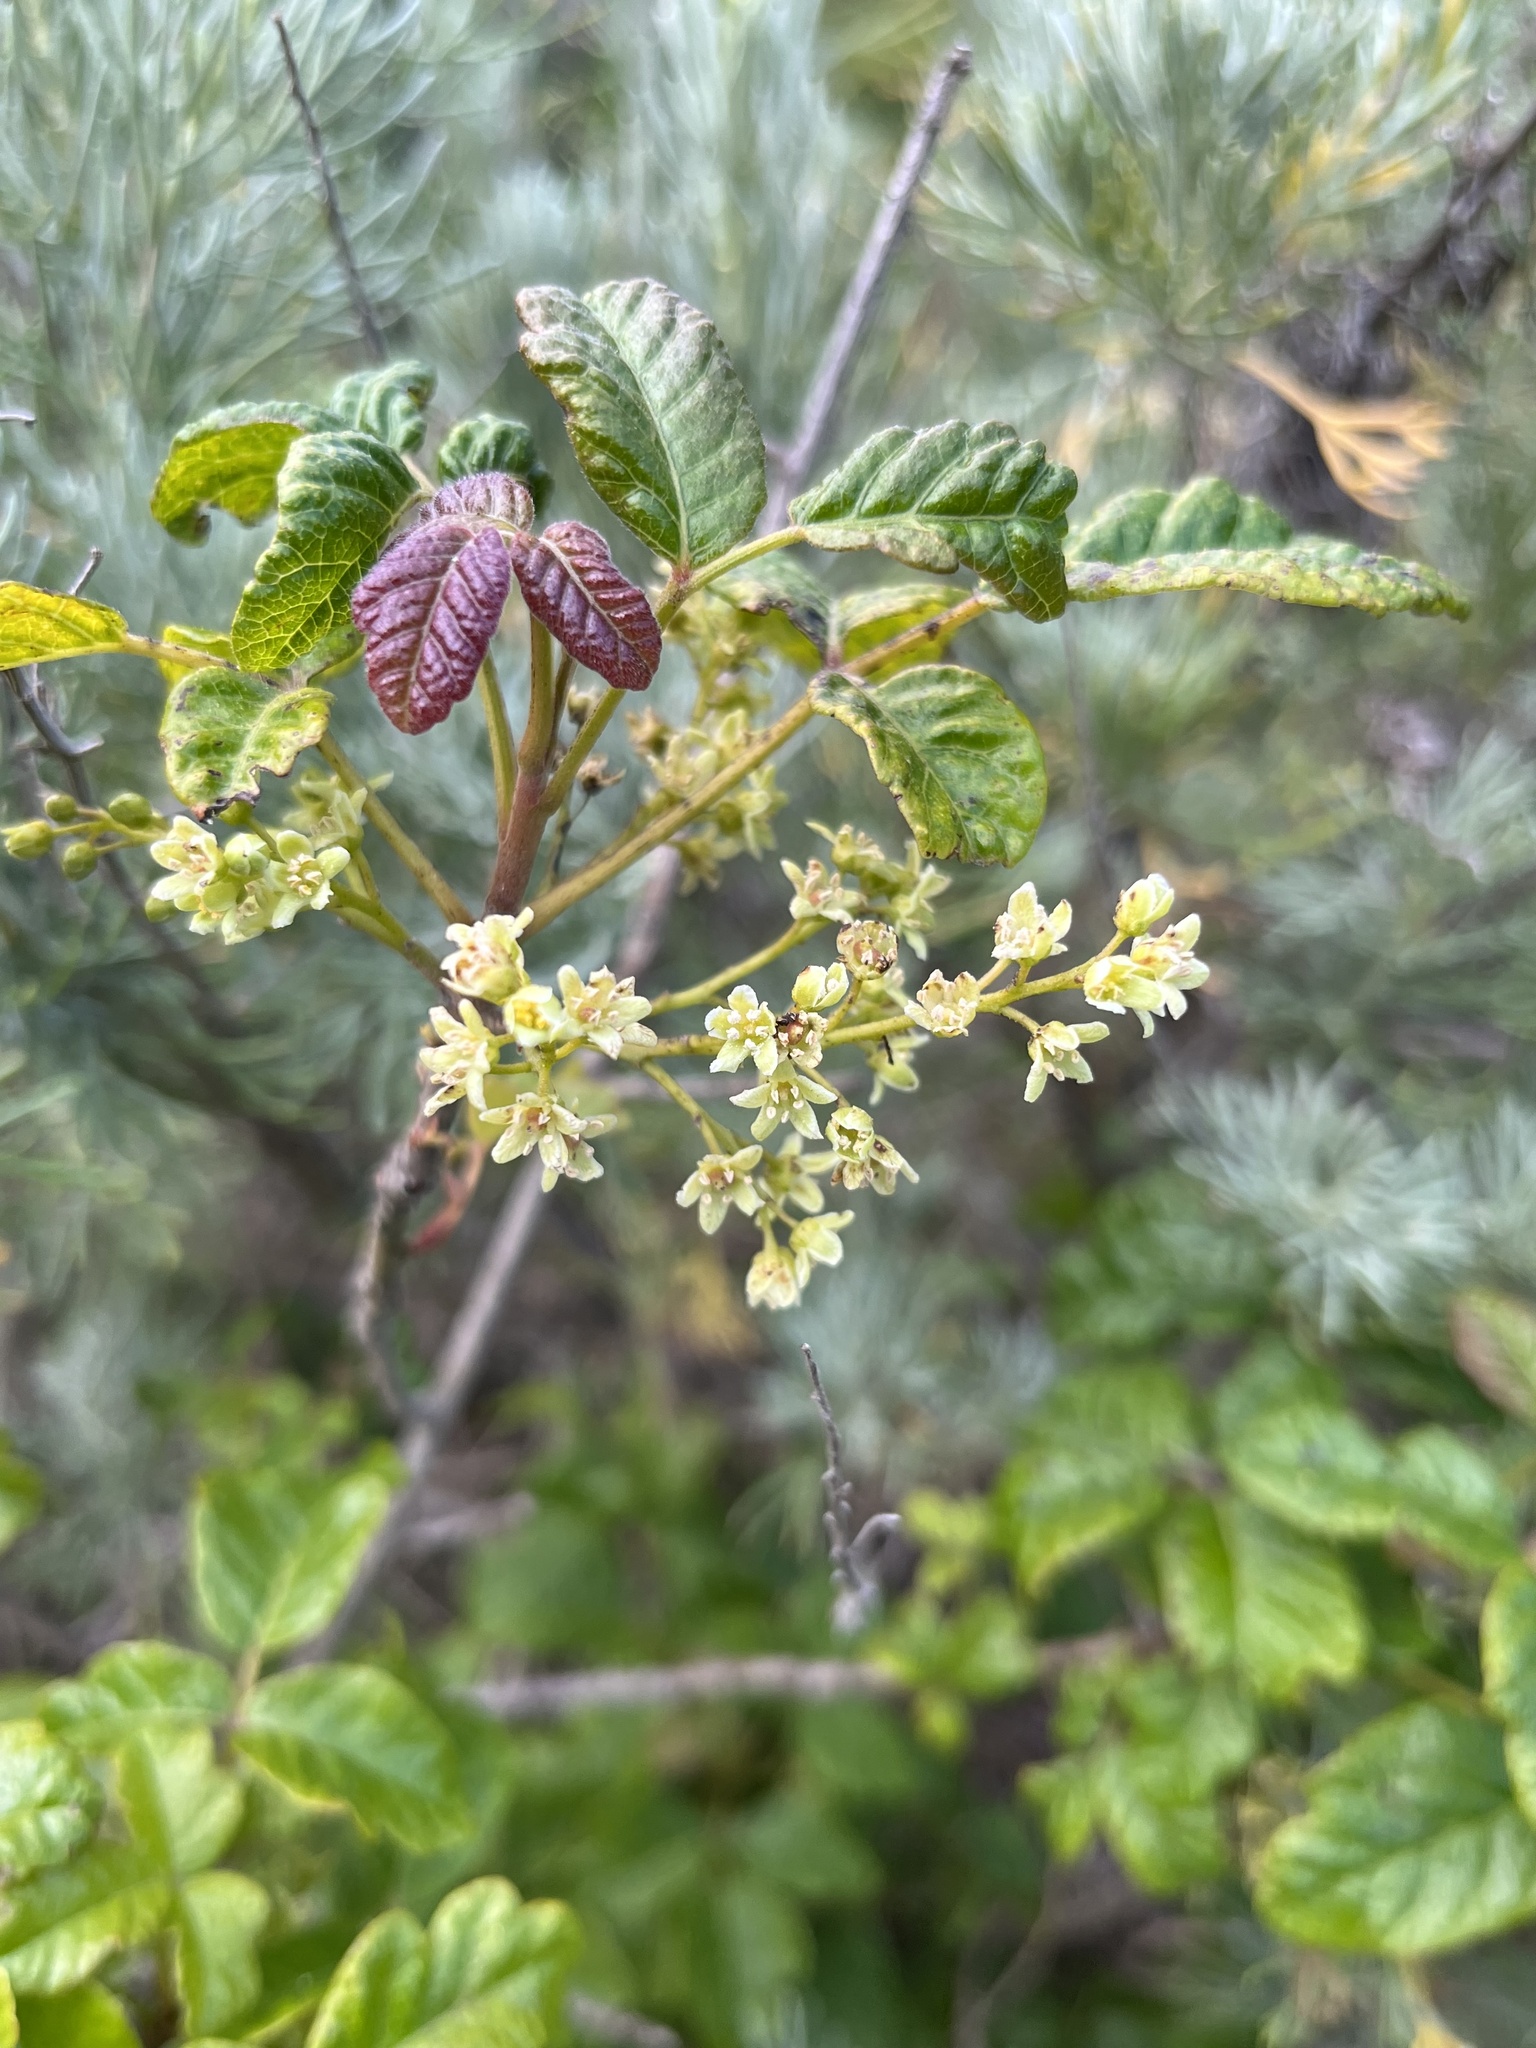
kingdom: Plantae
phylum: Tracheophyta
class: Magnoliopsida
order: Sapindales
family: Anacardiaceae
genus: Toxicodendron
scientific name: Toxicodendron diversilobum
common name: Pacific poison-oak
